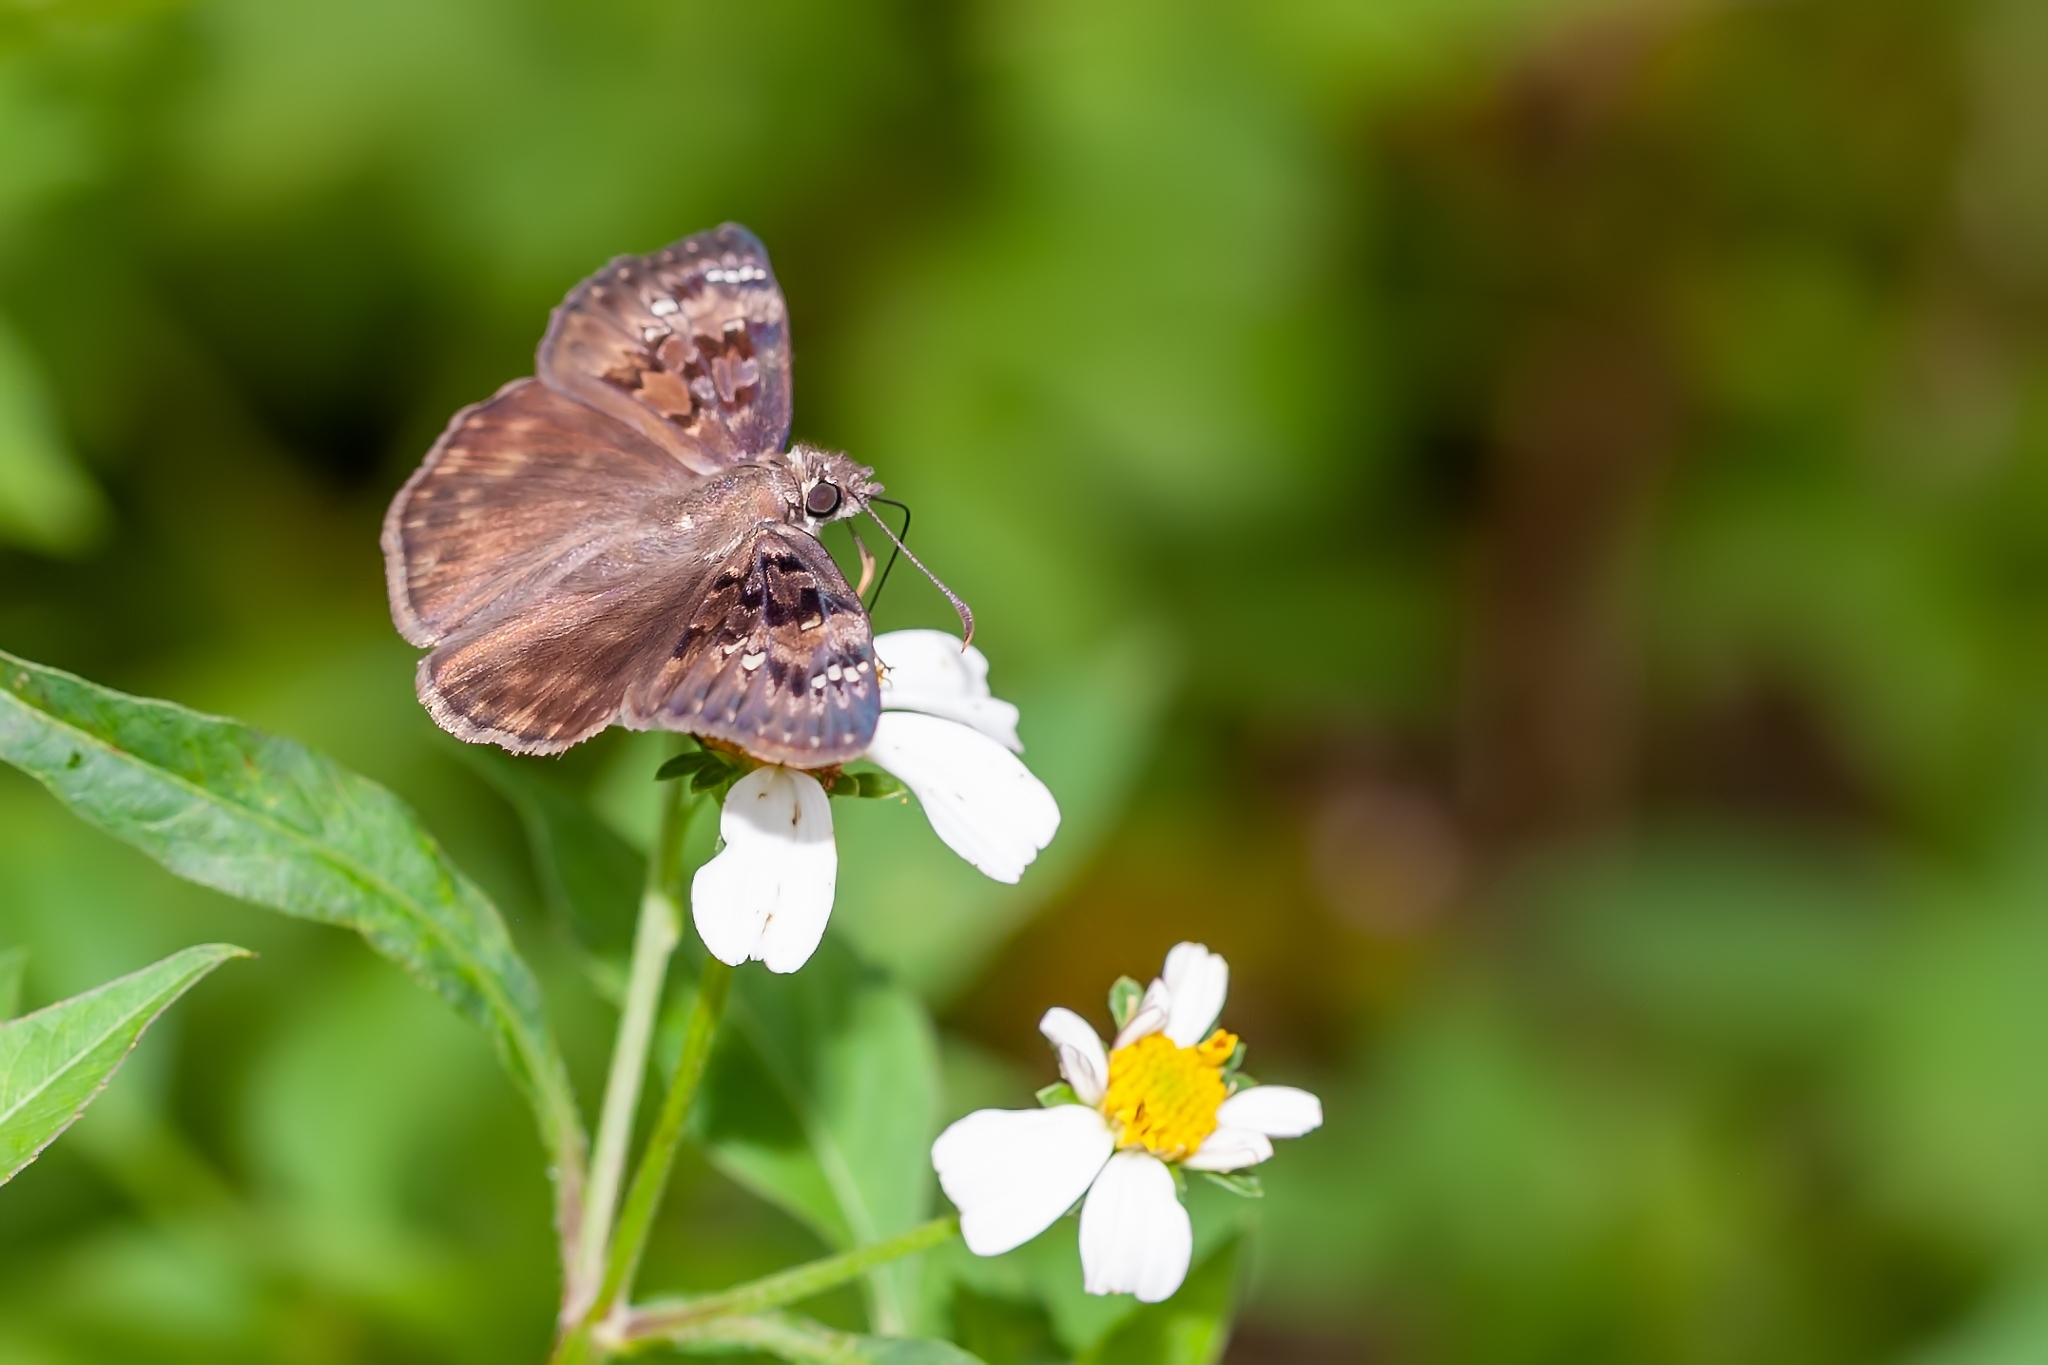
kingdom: Animalia
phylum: Arthropoda
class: Insecta
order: Lepidoptera
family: Hesperiidae
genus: Erynnis
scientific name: Erynnis horatius
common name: Horace's duskywing
